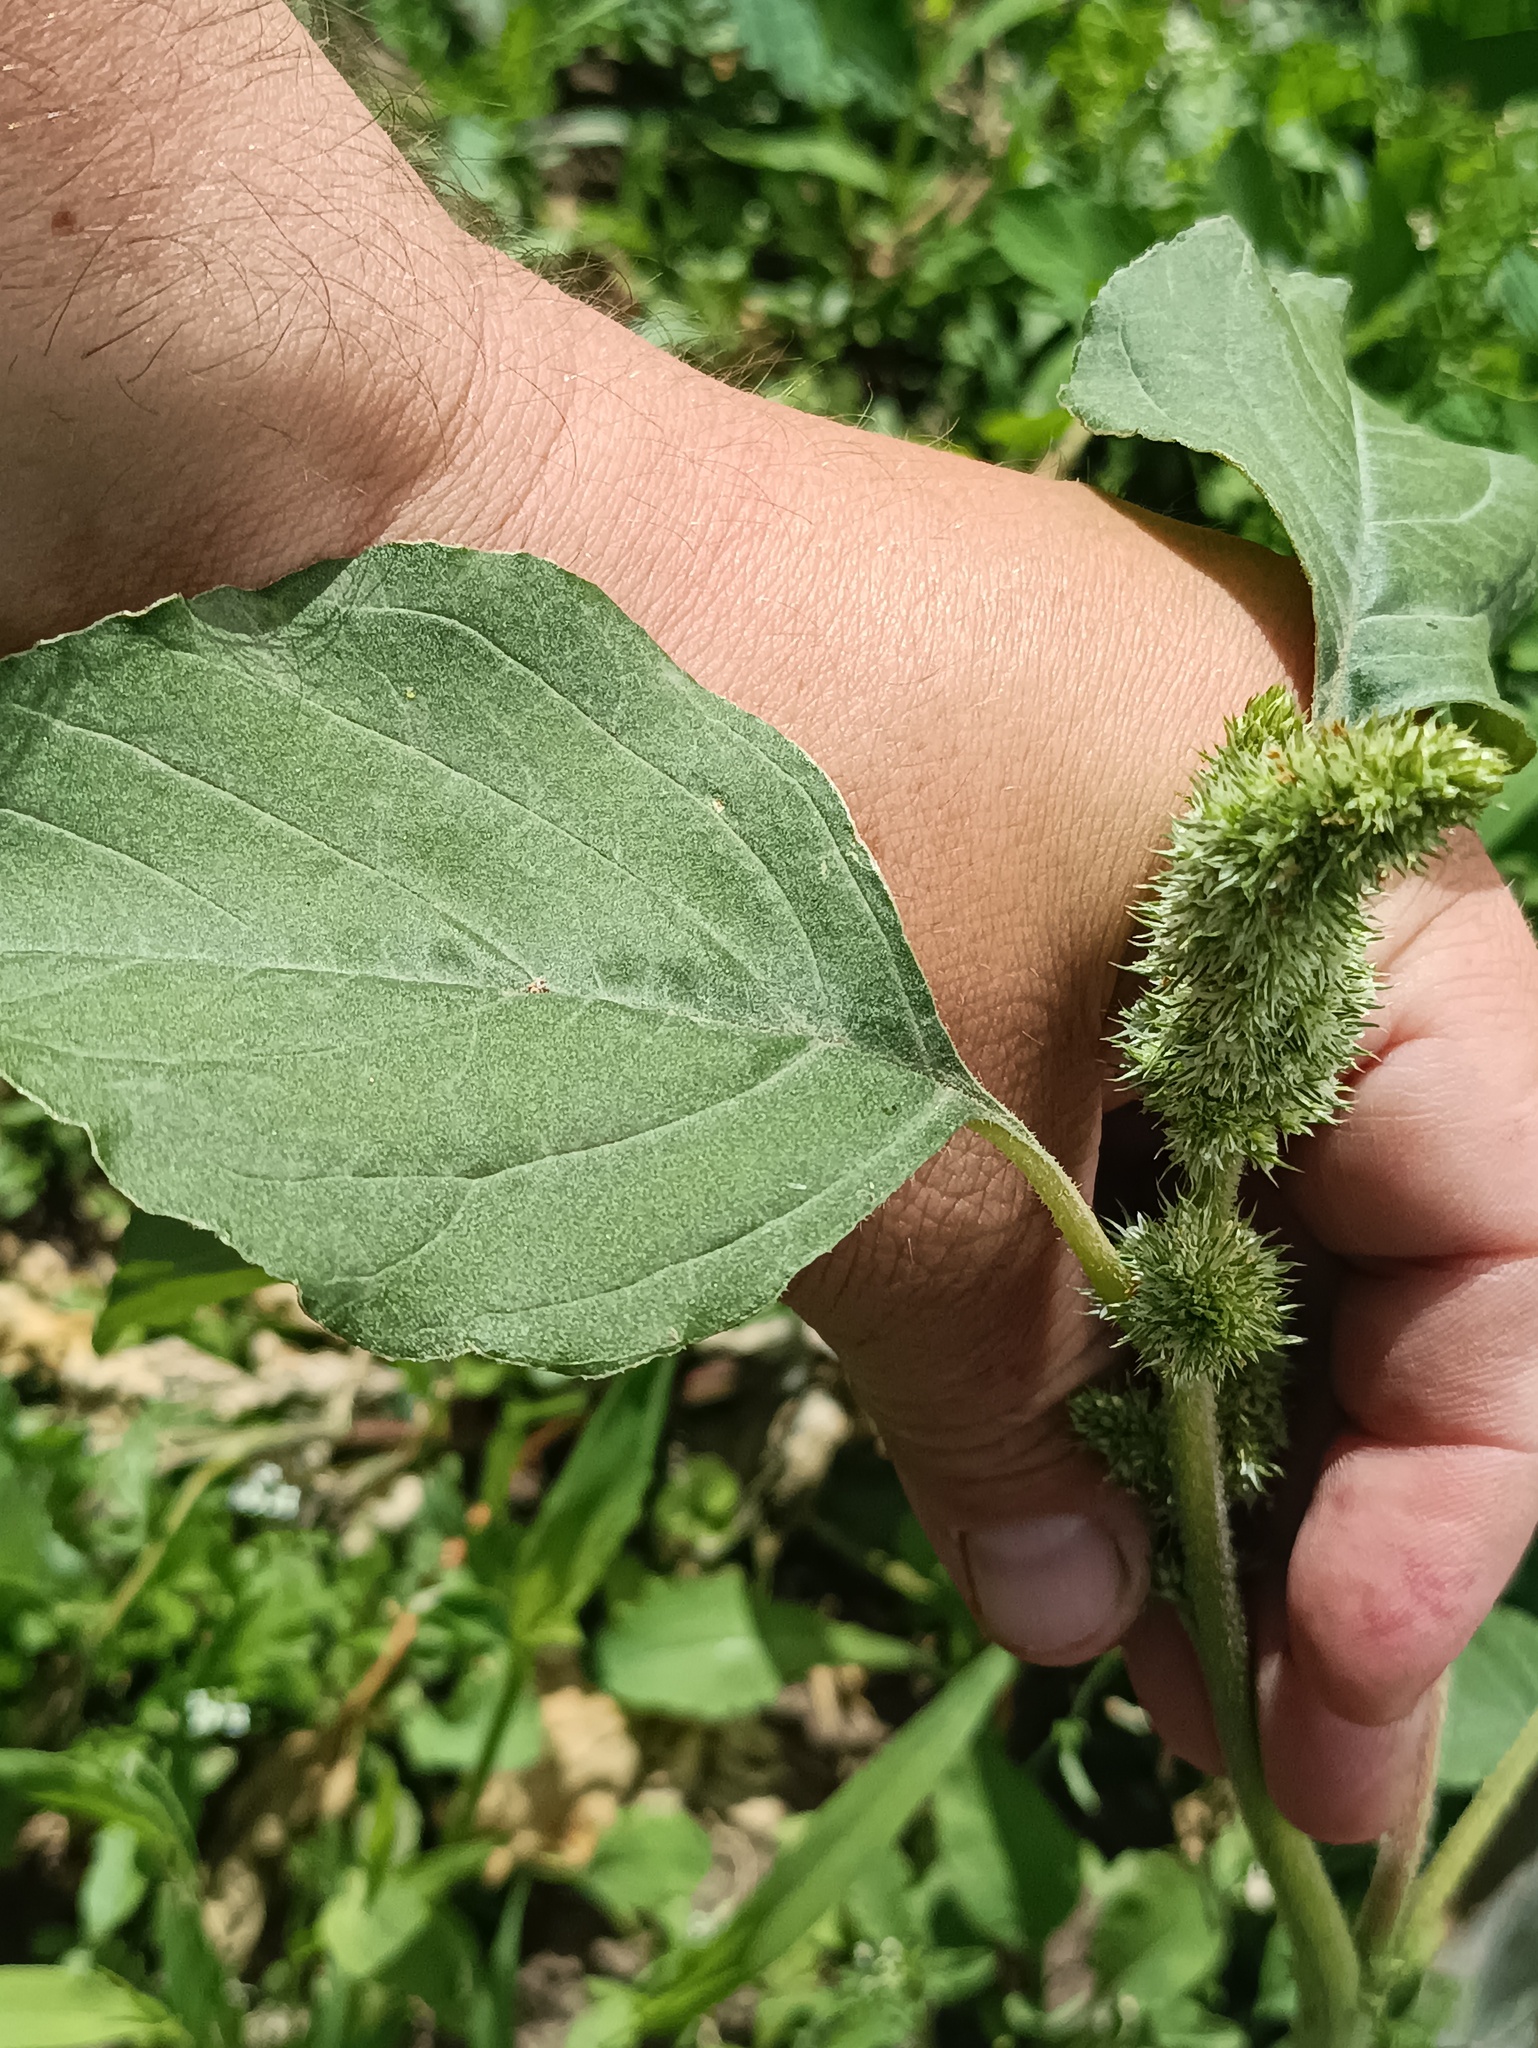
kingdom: Plantae
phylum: Tracheophyta
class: Magnoliopsida
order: Caryophyllales
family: Amaranthaceae
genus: Amaranthus
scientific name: Amaranthus retroflexus
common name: Redroot amaranth
